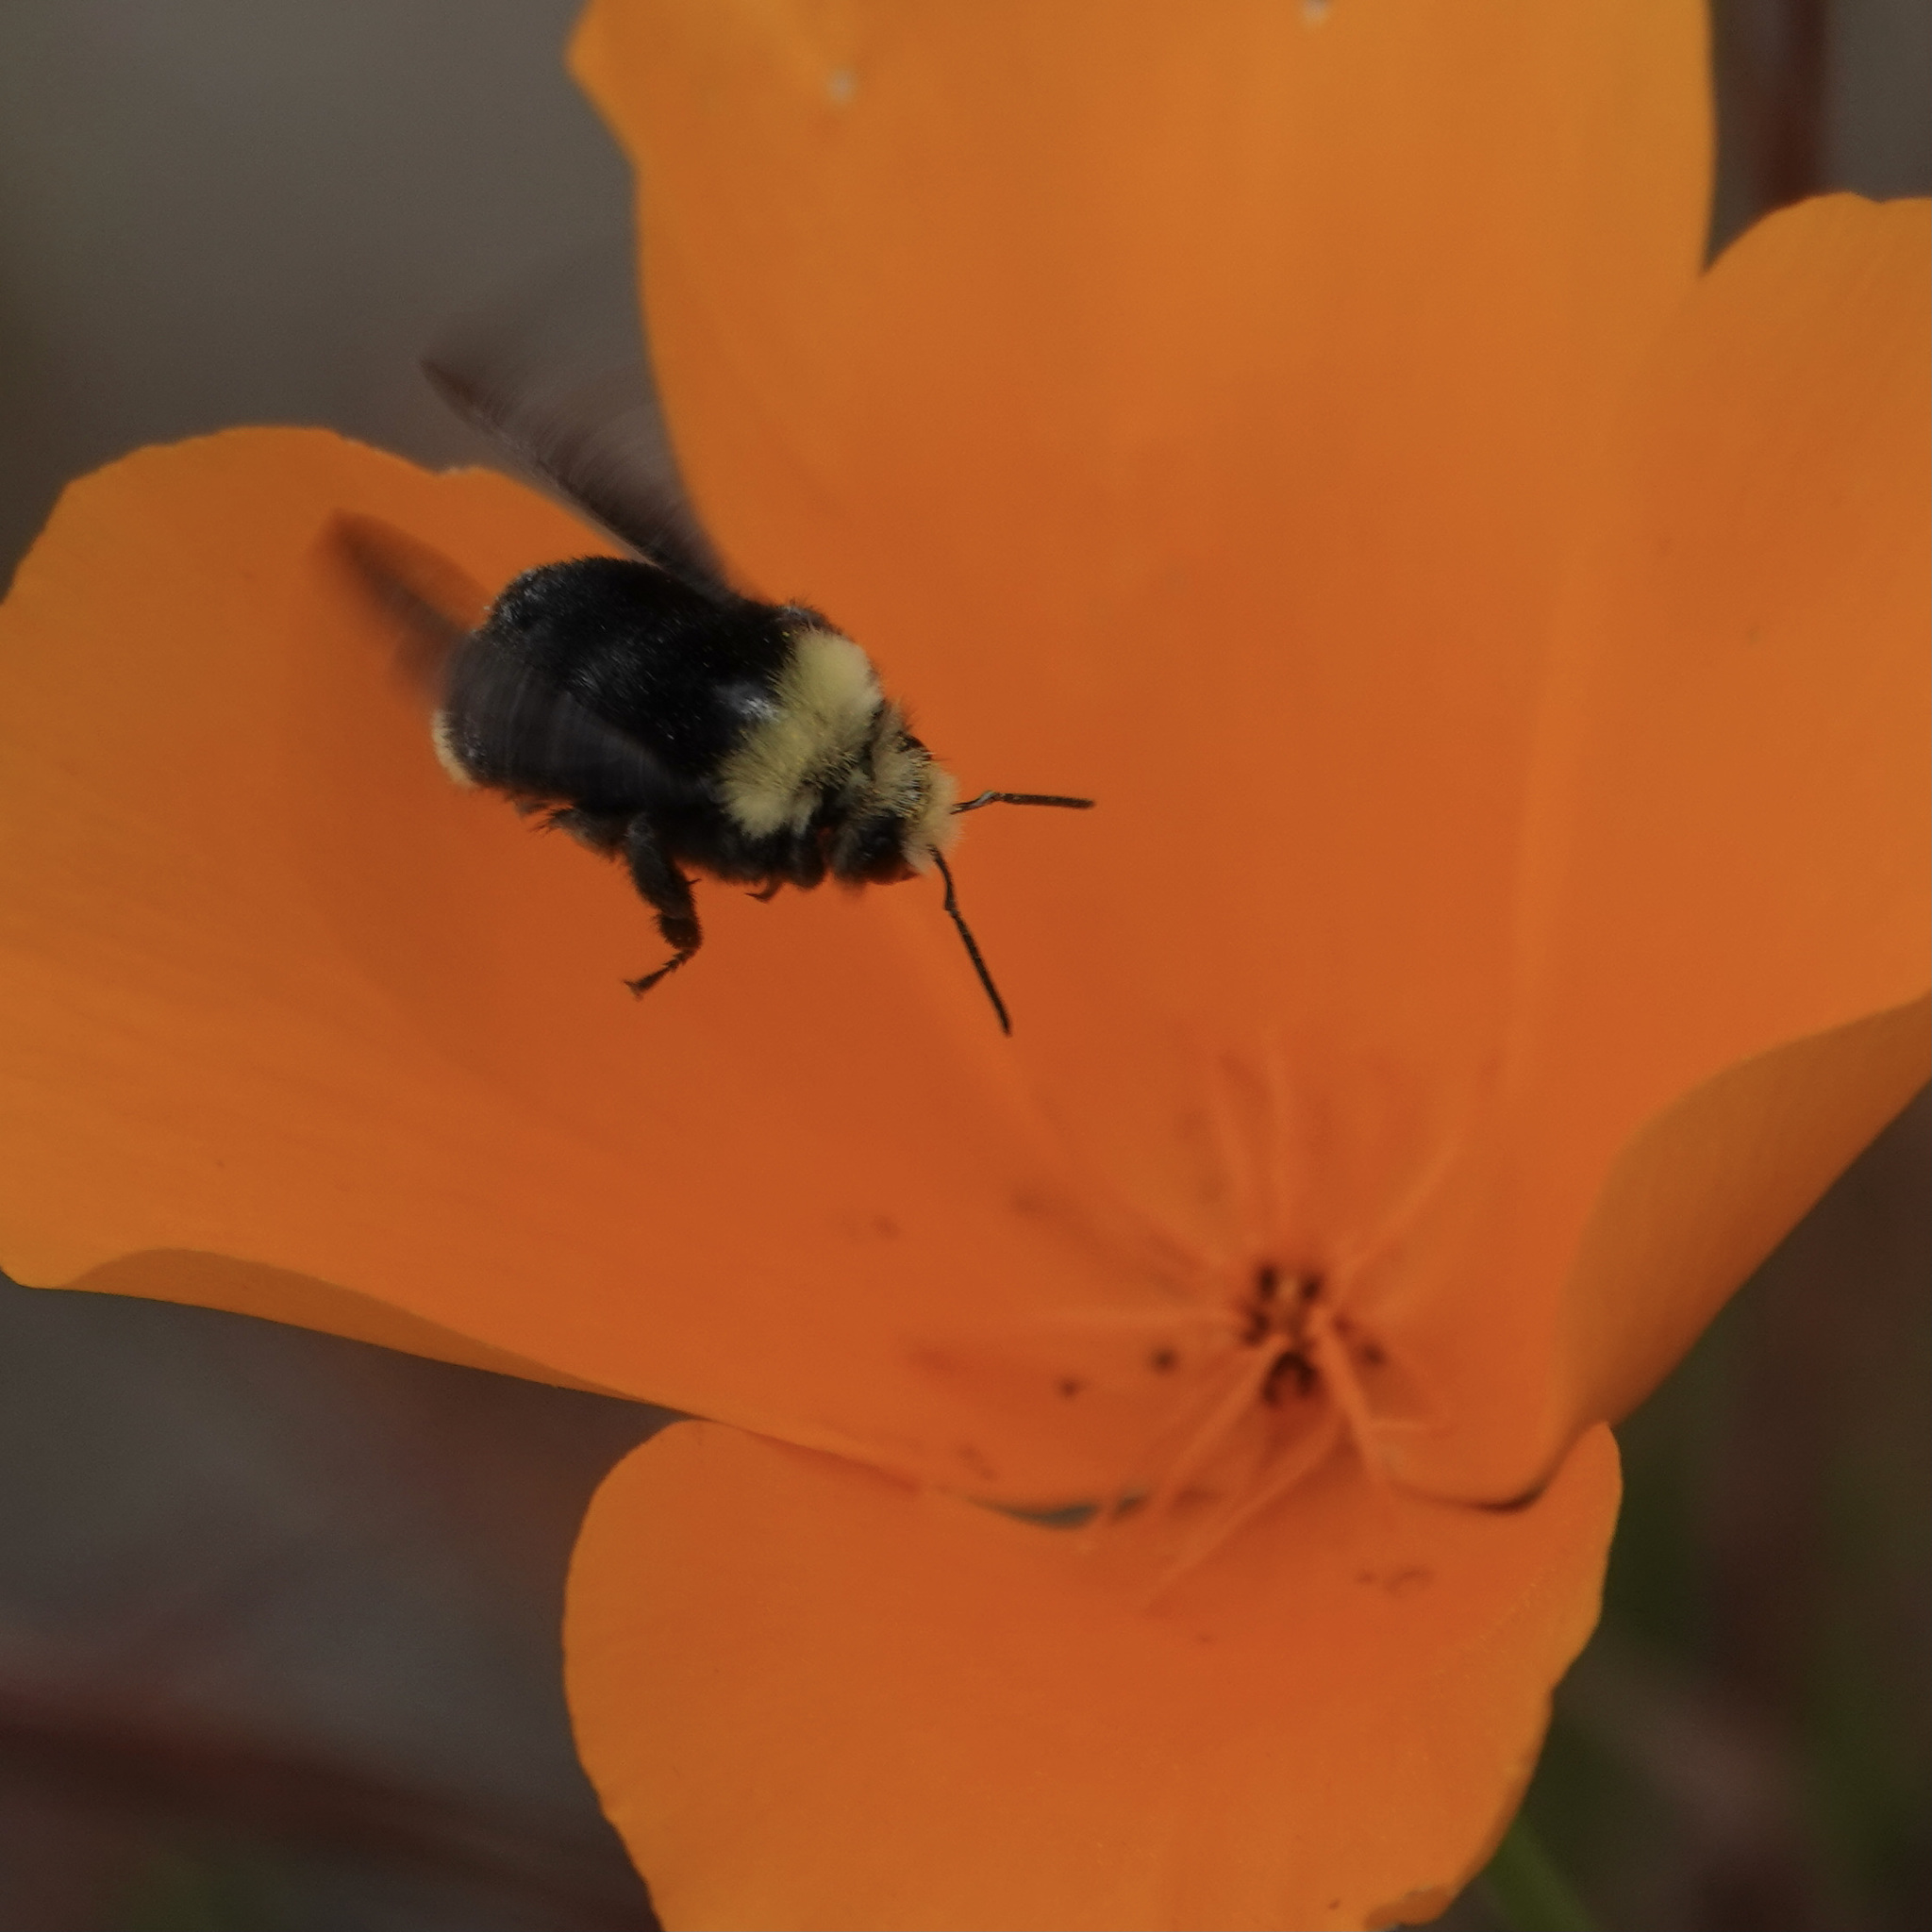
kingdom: Animalia
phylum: Arthropoda
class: Insecta
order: Hymenoptera
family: Apidae
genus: Bombus
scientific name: Bombus vosnesenskii
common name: Vosnesensky bumble bee
